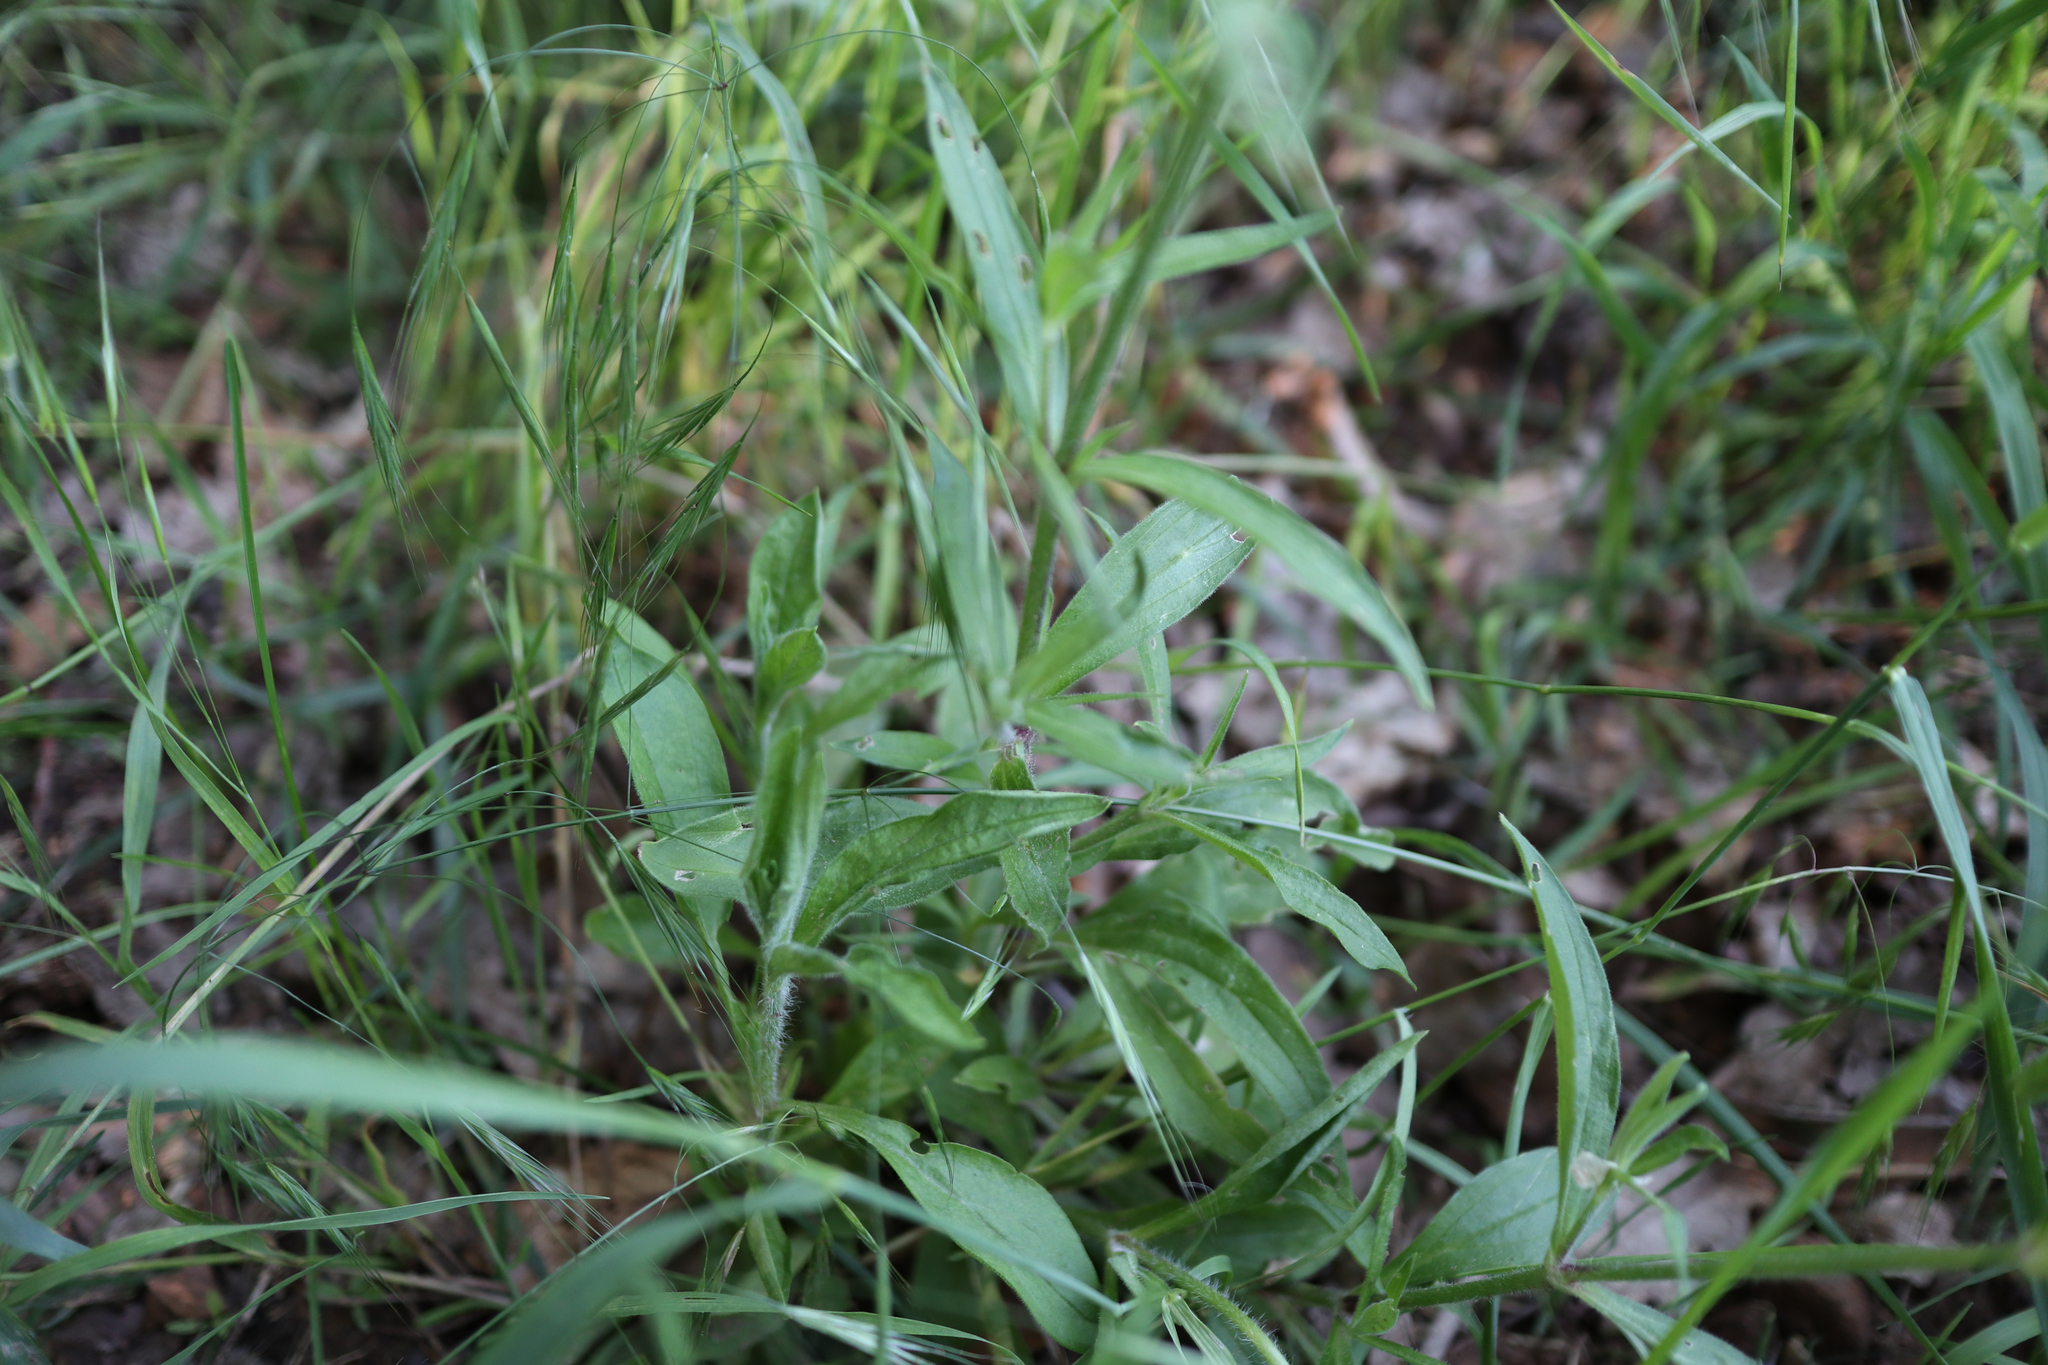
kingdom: Plantae
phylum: Tracheophyta
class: Magnoliopsida
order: Caryophyllales
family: Caryophyllaceae
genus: Silene
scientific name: Silene latifolia
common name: White campion
